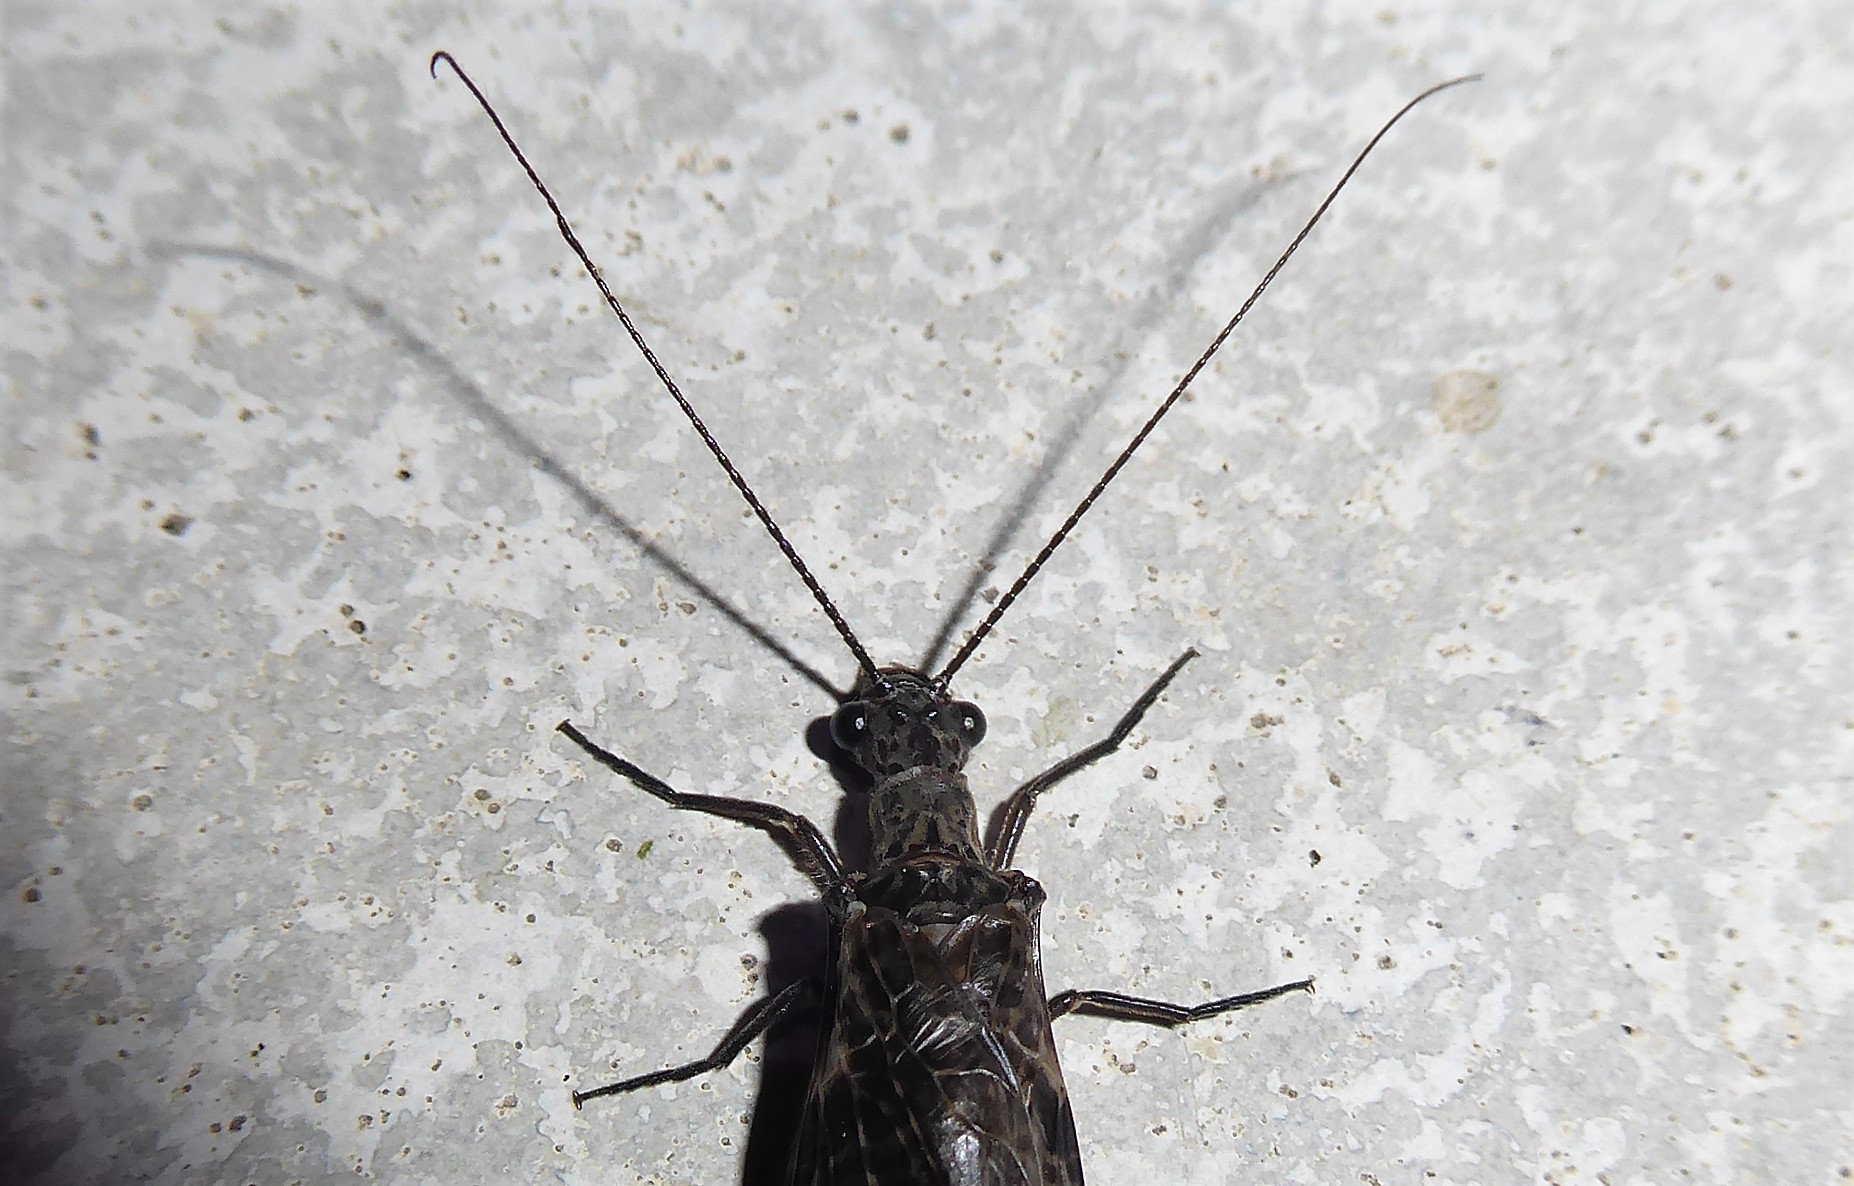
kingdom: Animalia
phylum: Arthropoda
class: Insecta
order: Megaloptera
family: Corydalidae
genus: Archichauliodes
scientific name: Archichauliodes diversus
